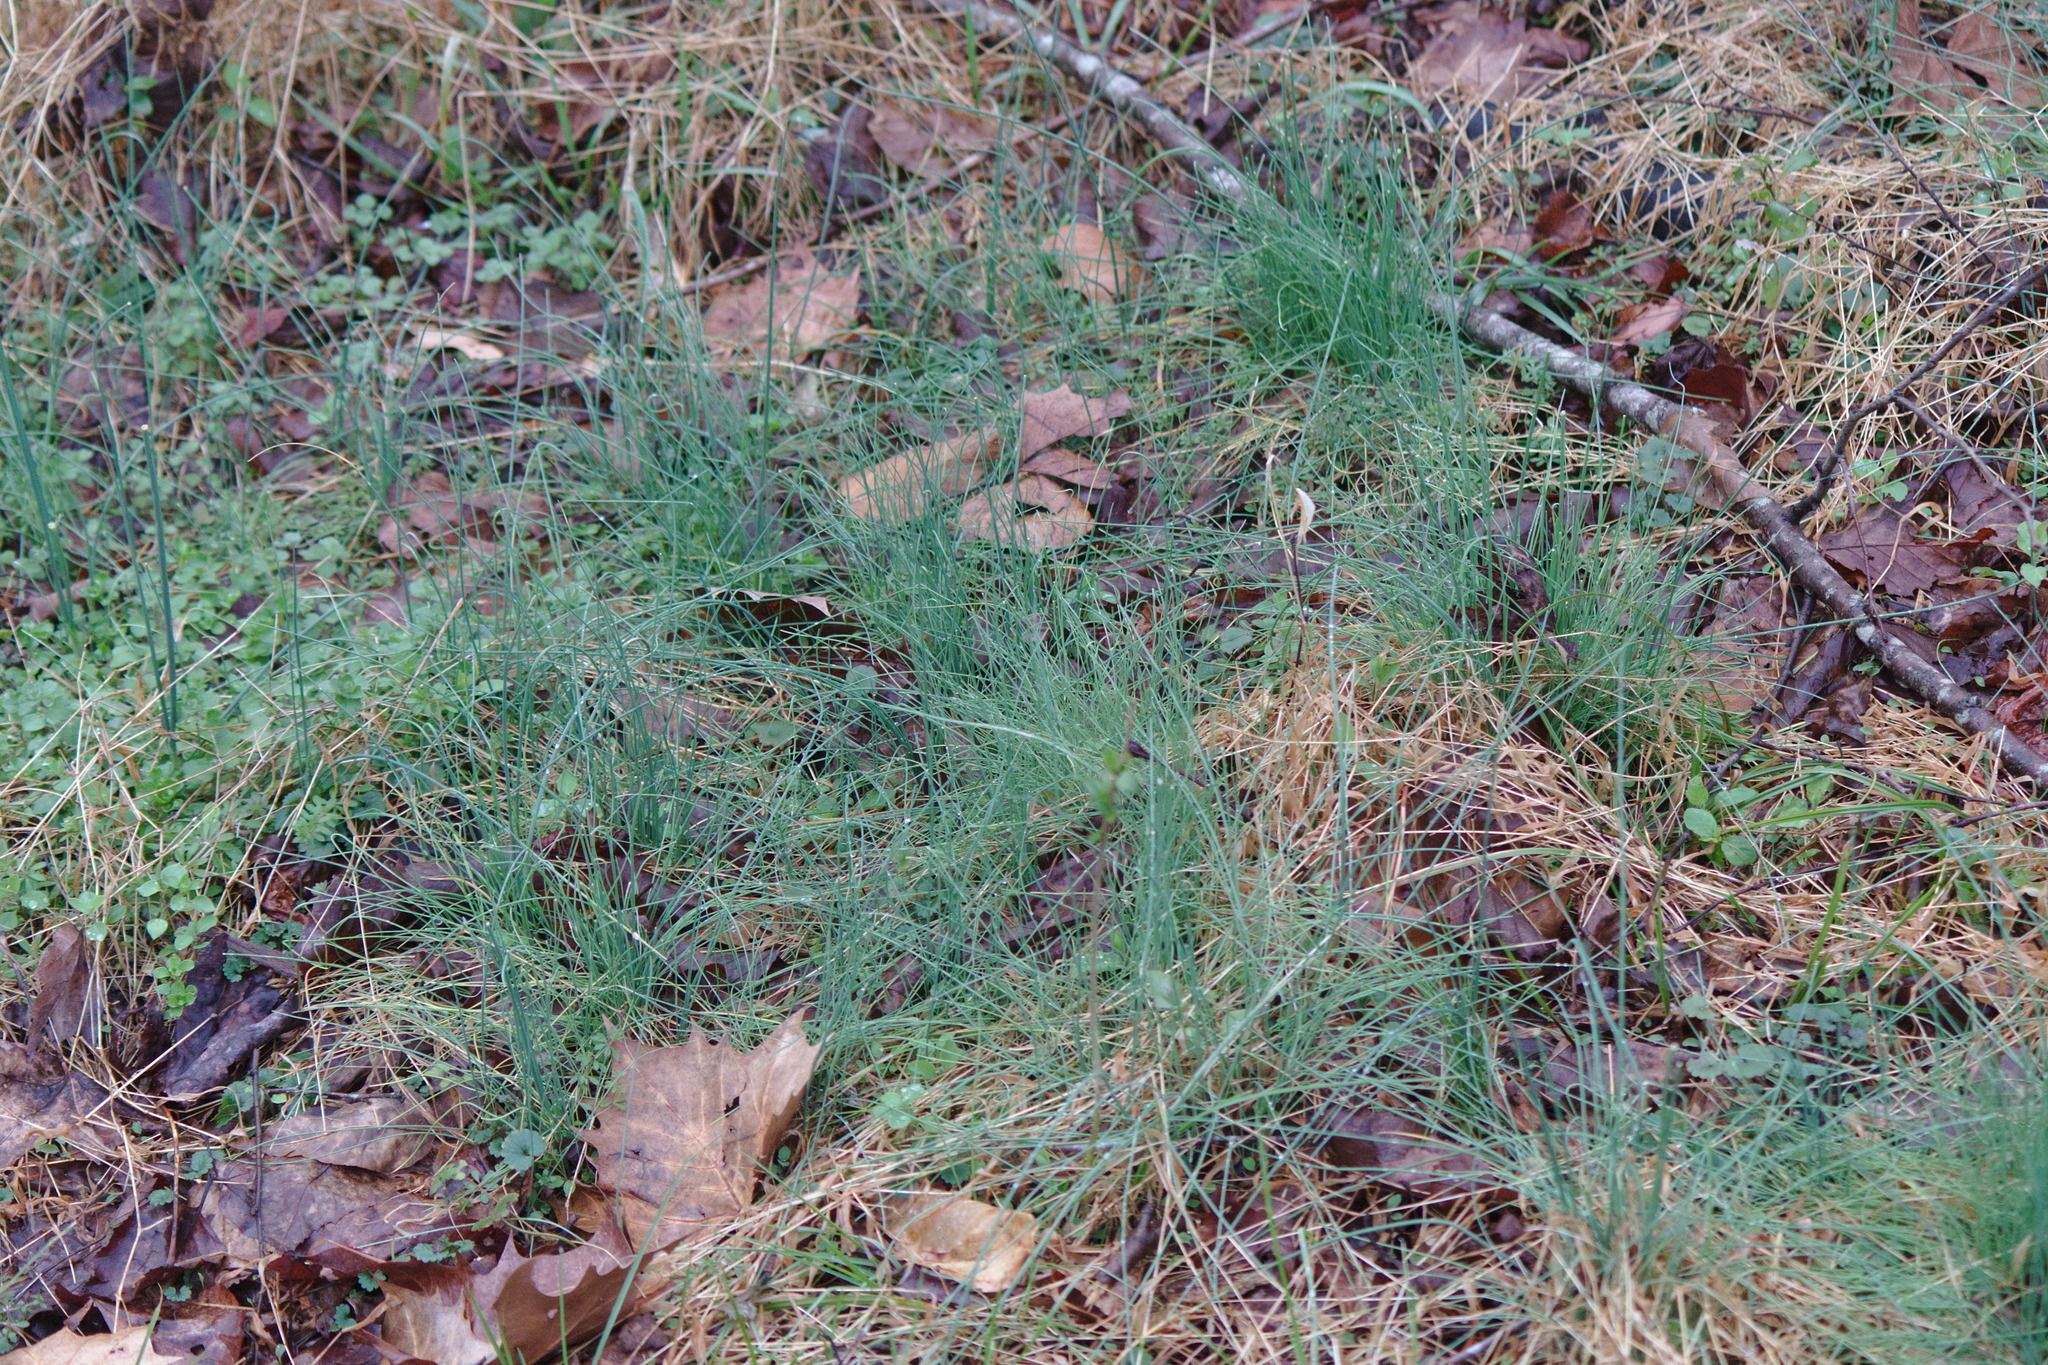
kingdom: Plantae
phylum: Tracheophyta
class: Liliopsida
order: Asparagales
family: Amaryllidaceae
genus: Allium
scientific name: Allium vineale
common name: Crow garlic
